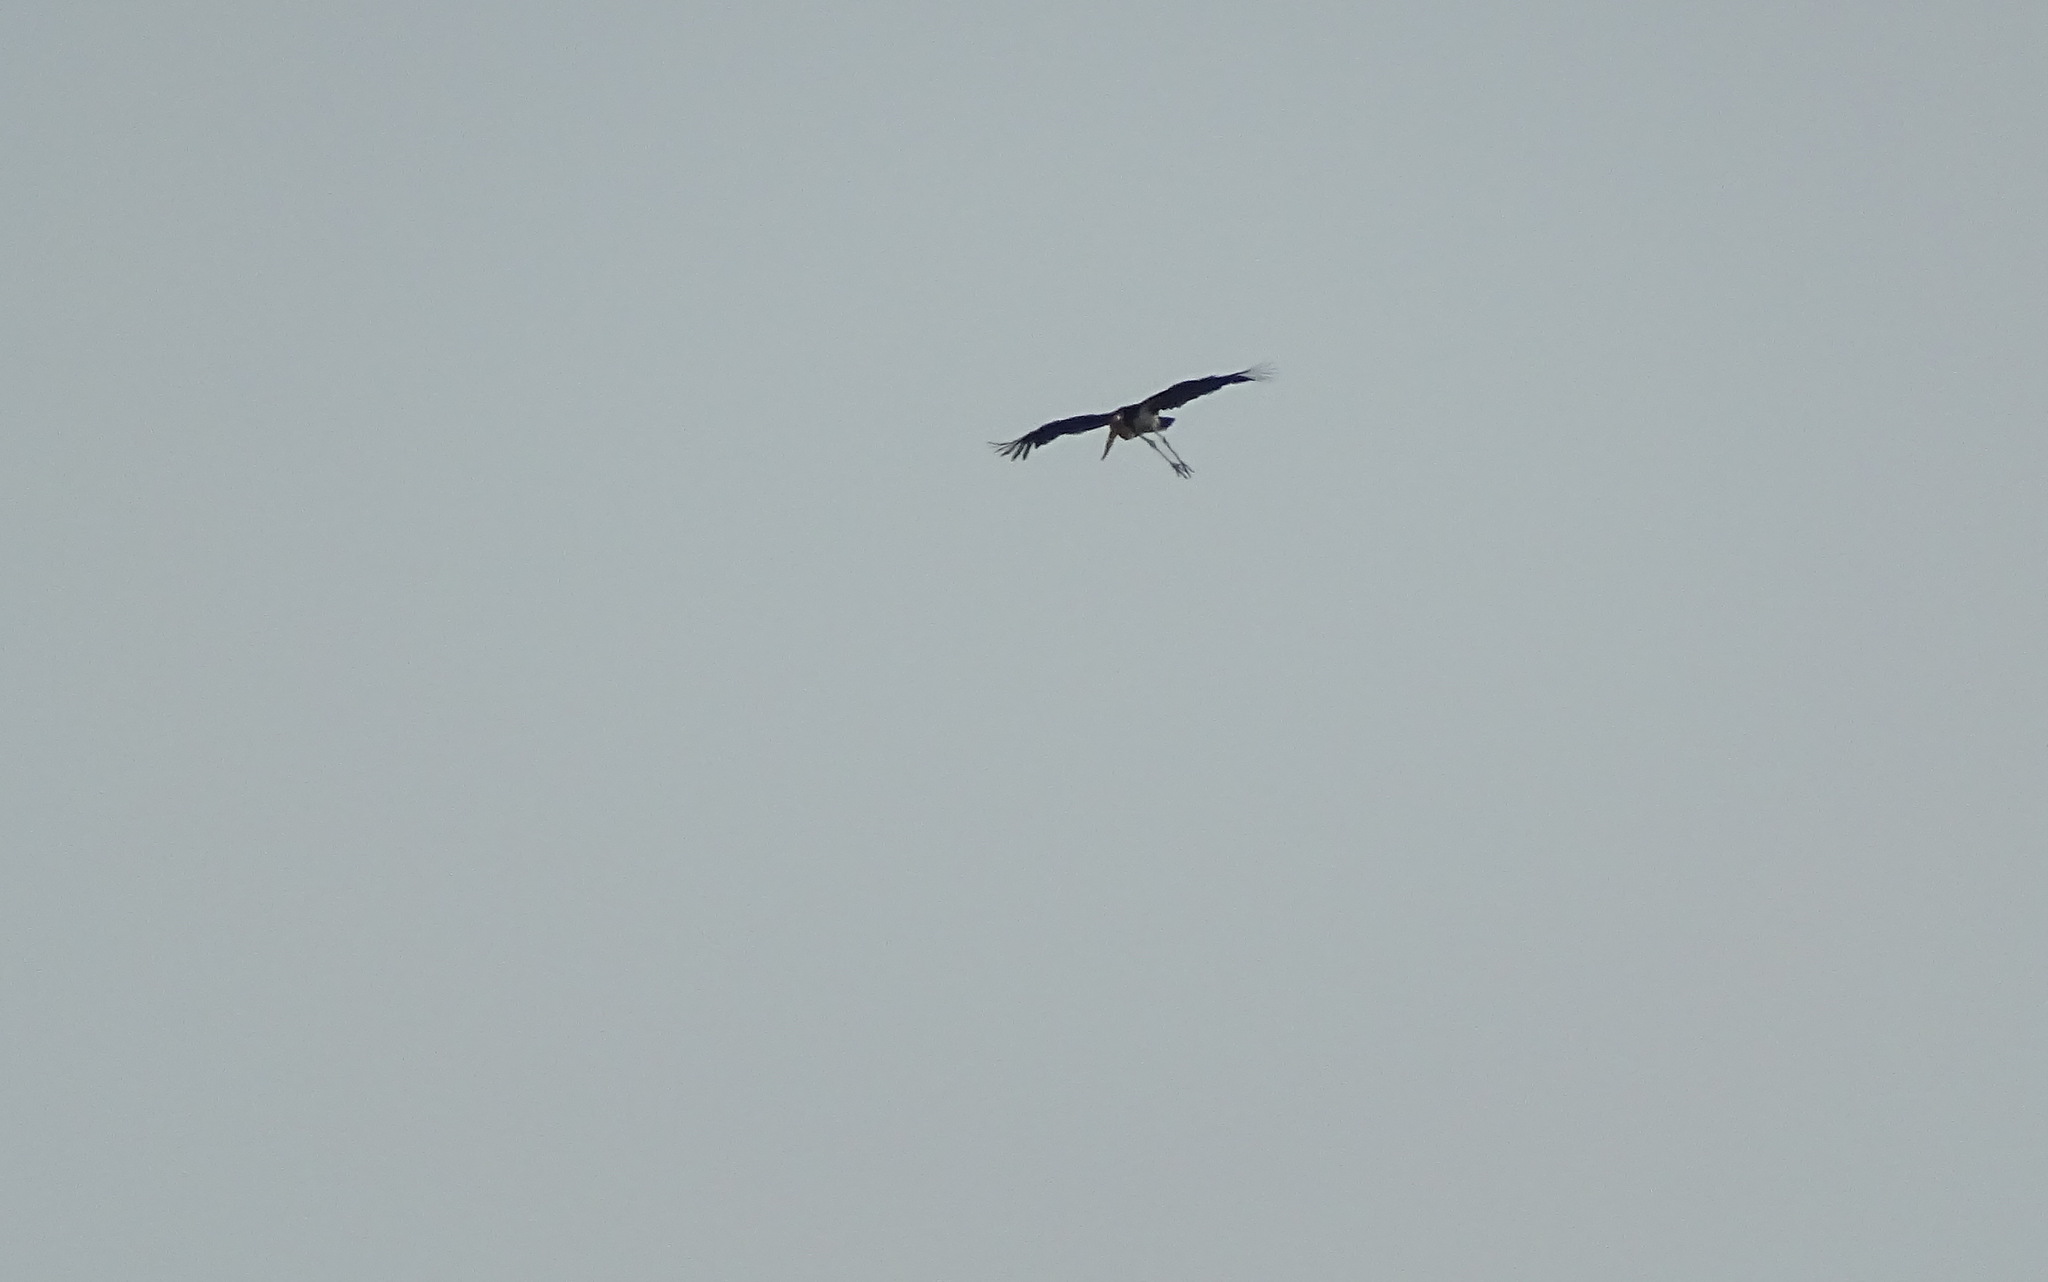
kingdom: Animalia
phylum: Chordata
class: Aves
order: Ciconiiformes
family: Ciconiidae
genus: Leptoptilos
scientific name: Leptoptilos javanicus
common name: Lesser adjutant
